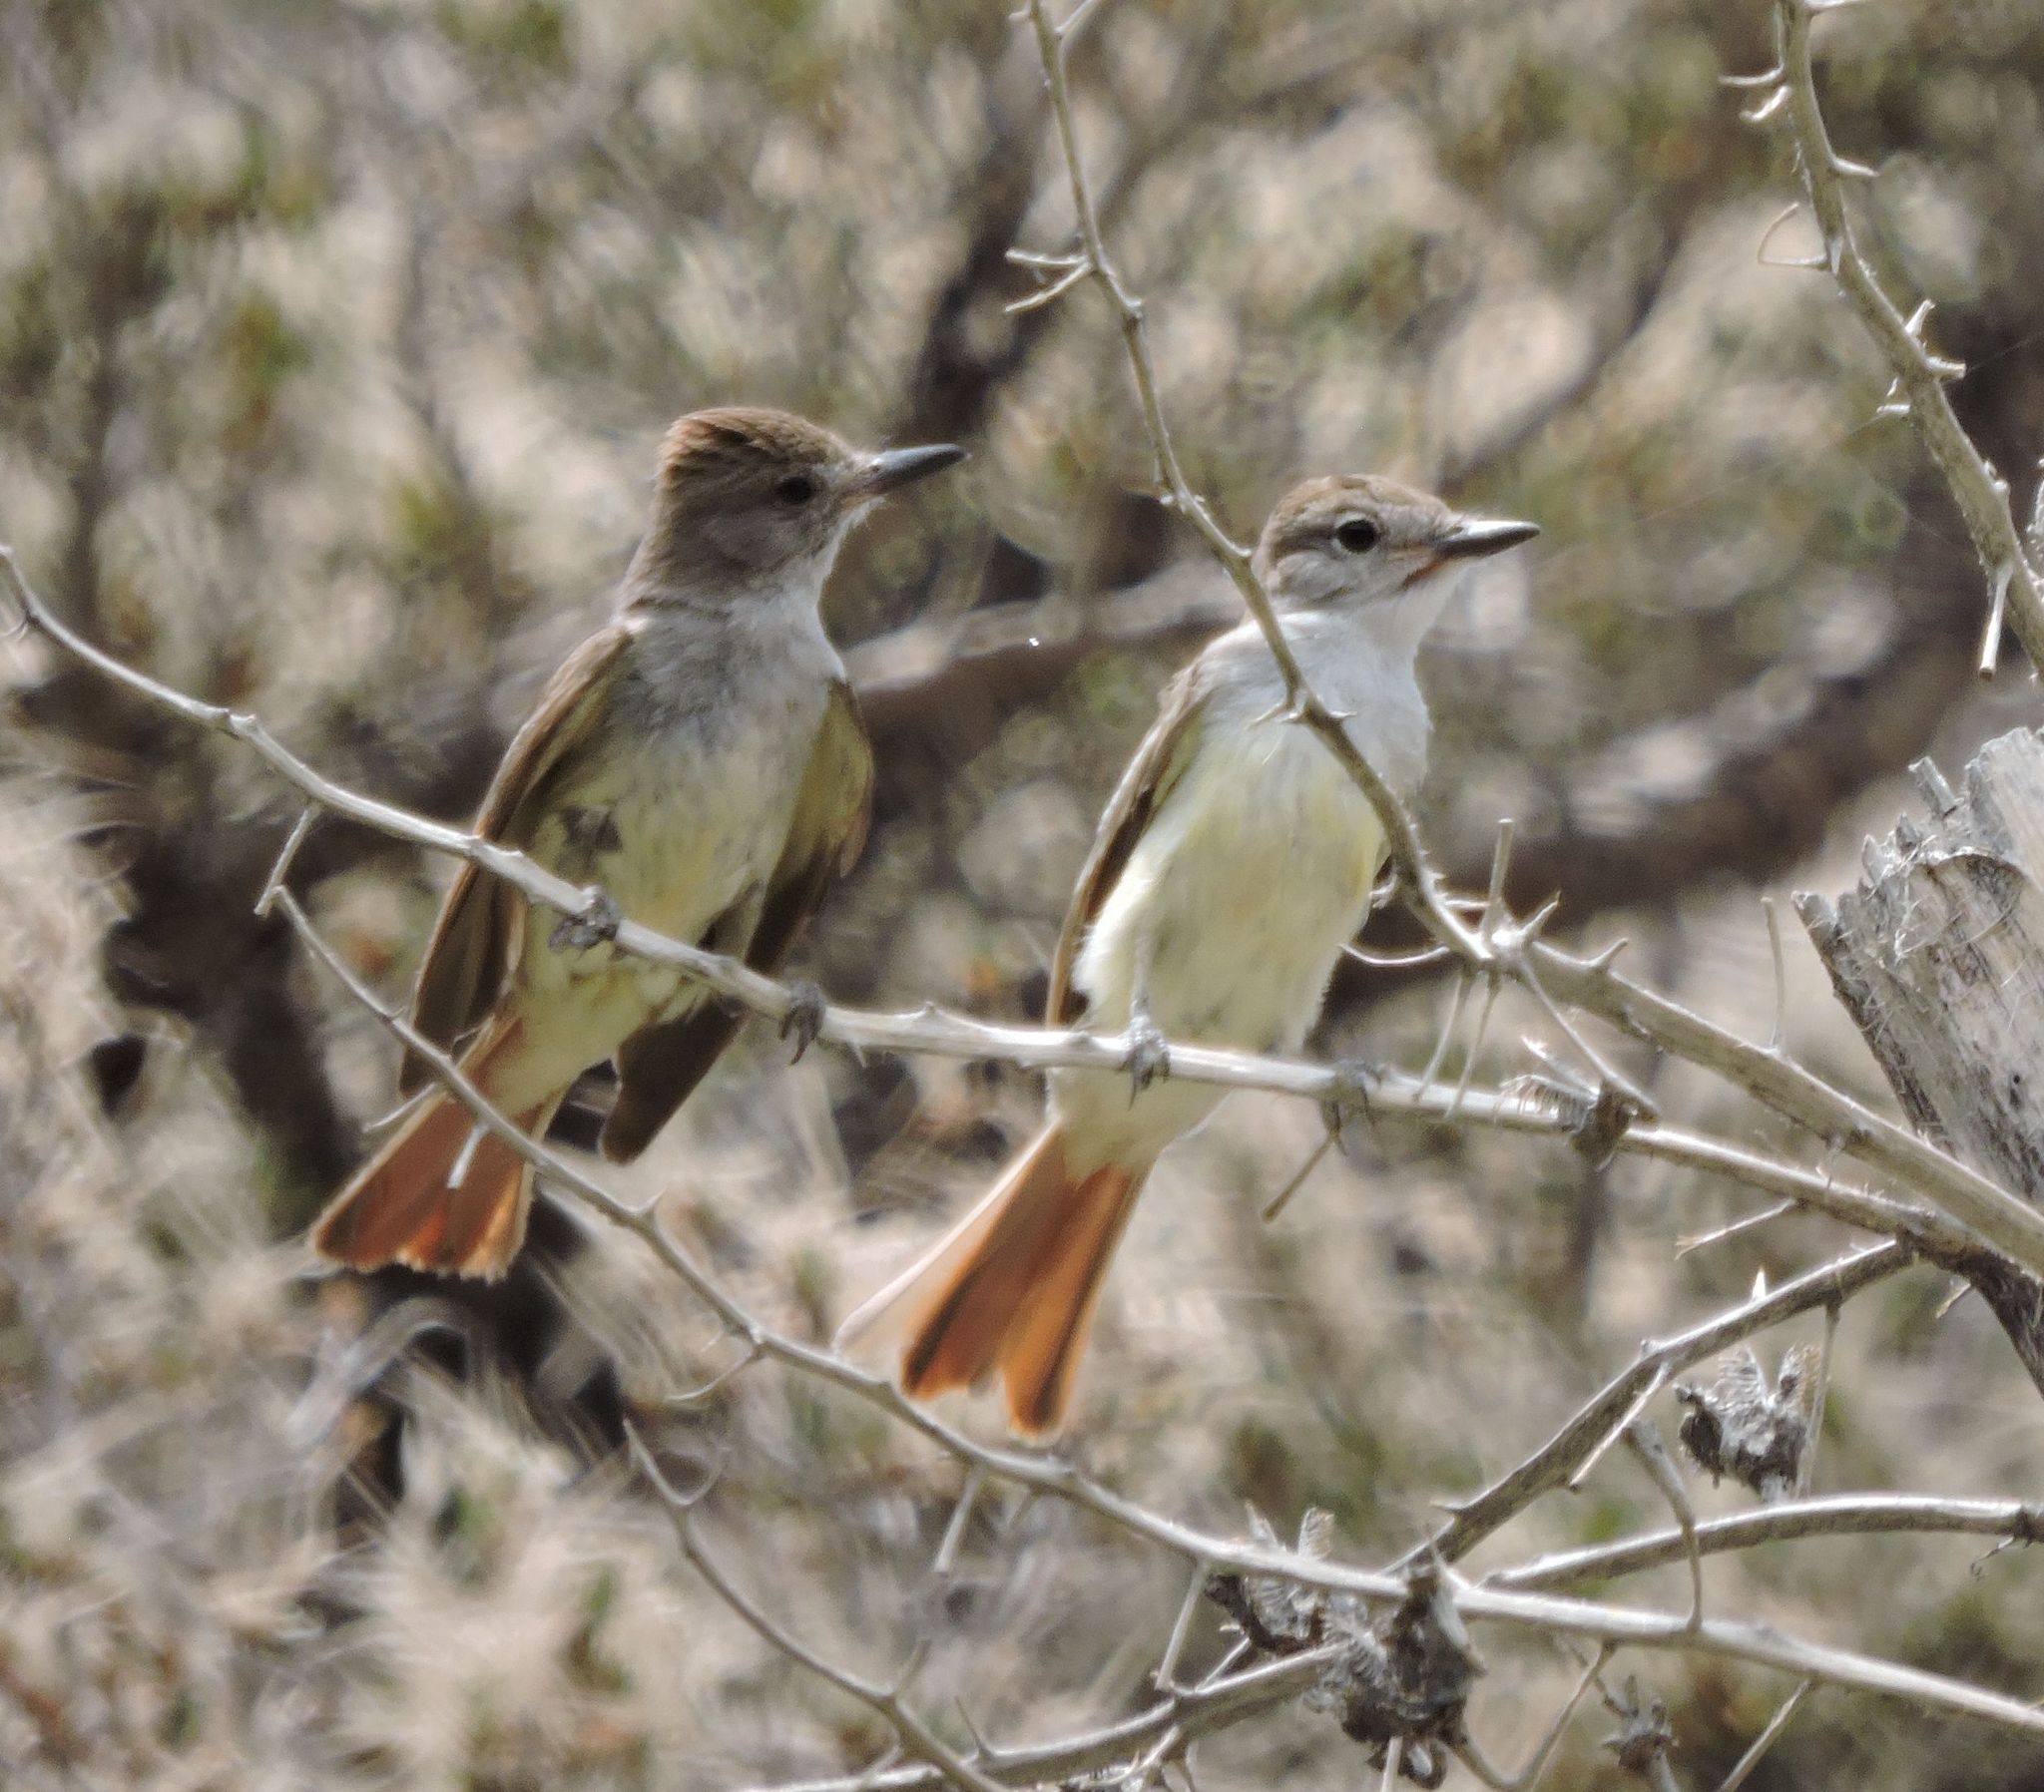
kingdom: Animalia
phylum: Chordata
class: Aves
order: Passeriformes
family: Tyrannidae
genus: Myiarchus
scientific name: Myiarchus cinerascens
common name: Ash-throated flycatcher
